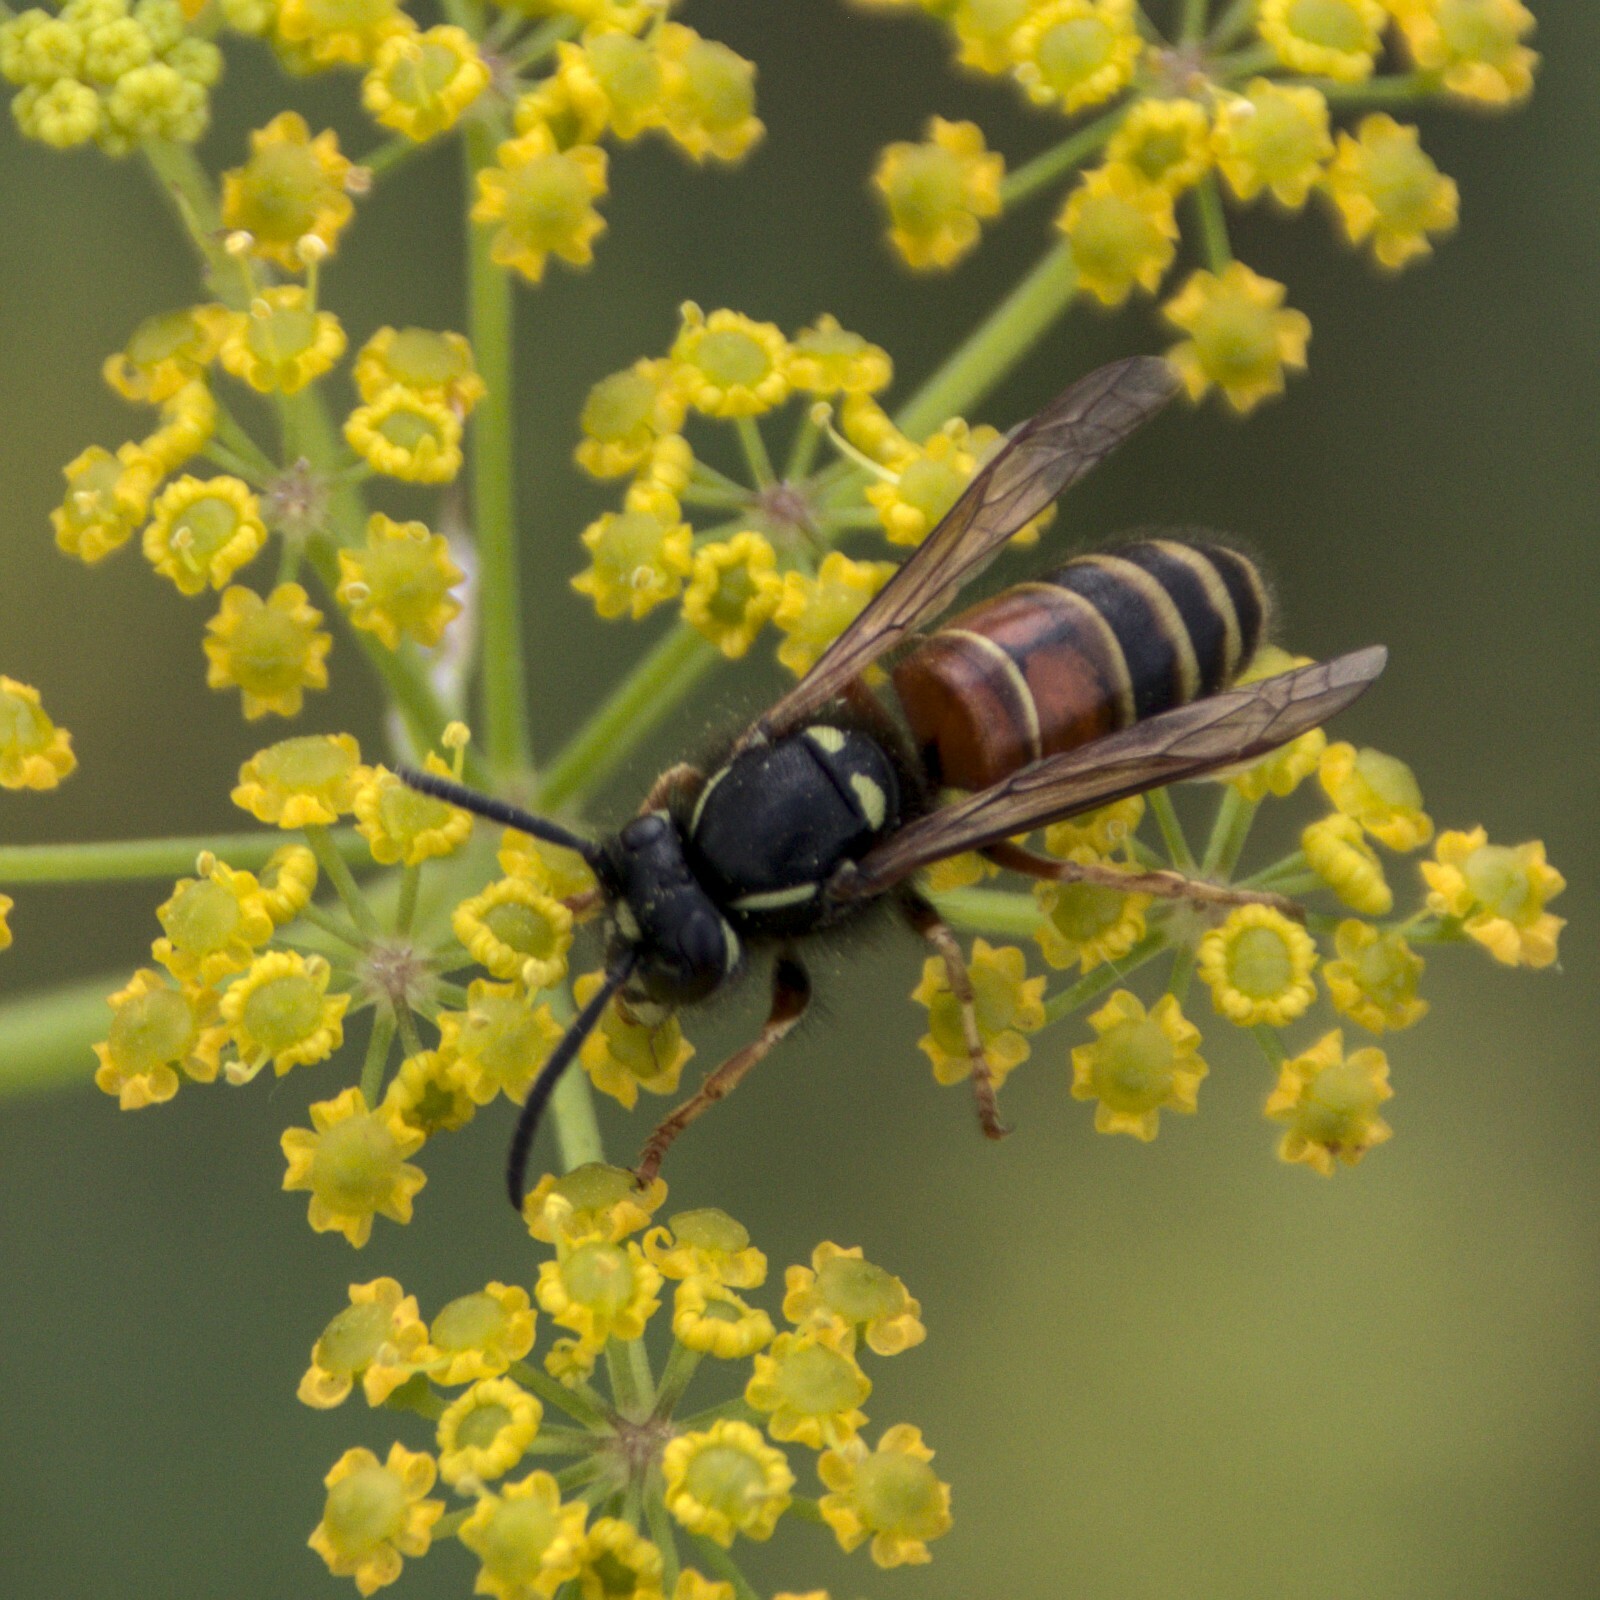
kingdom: Animalia
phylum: Arthropoda
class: Insecta
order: Hymenoptera
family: Vespidae
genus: Vespula
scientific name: Vespula rufa
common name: Red wasp
